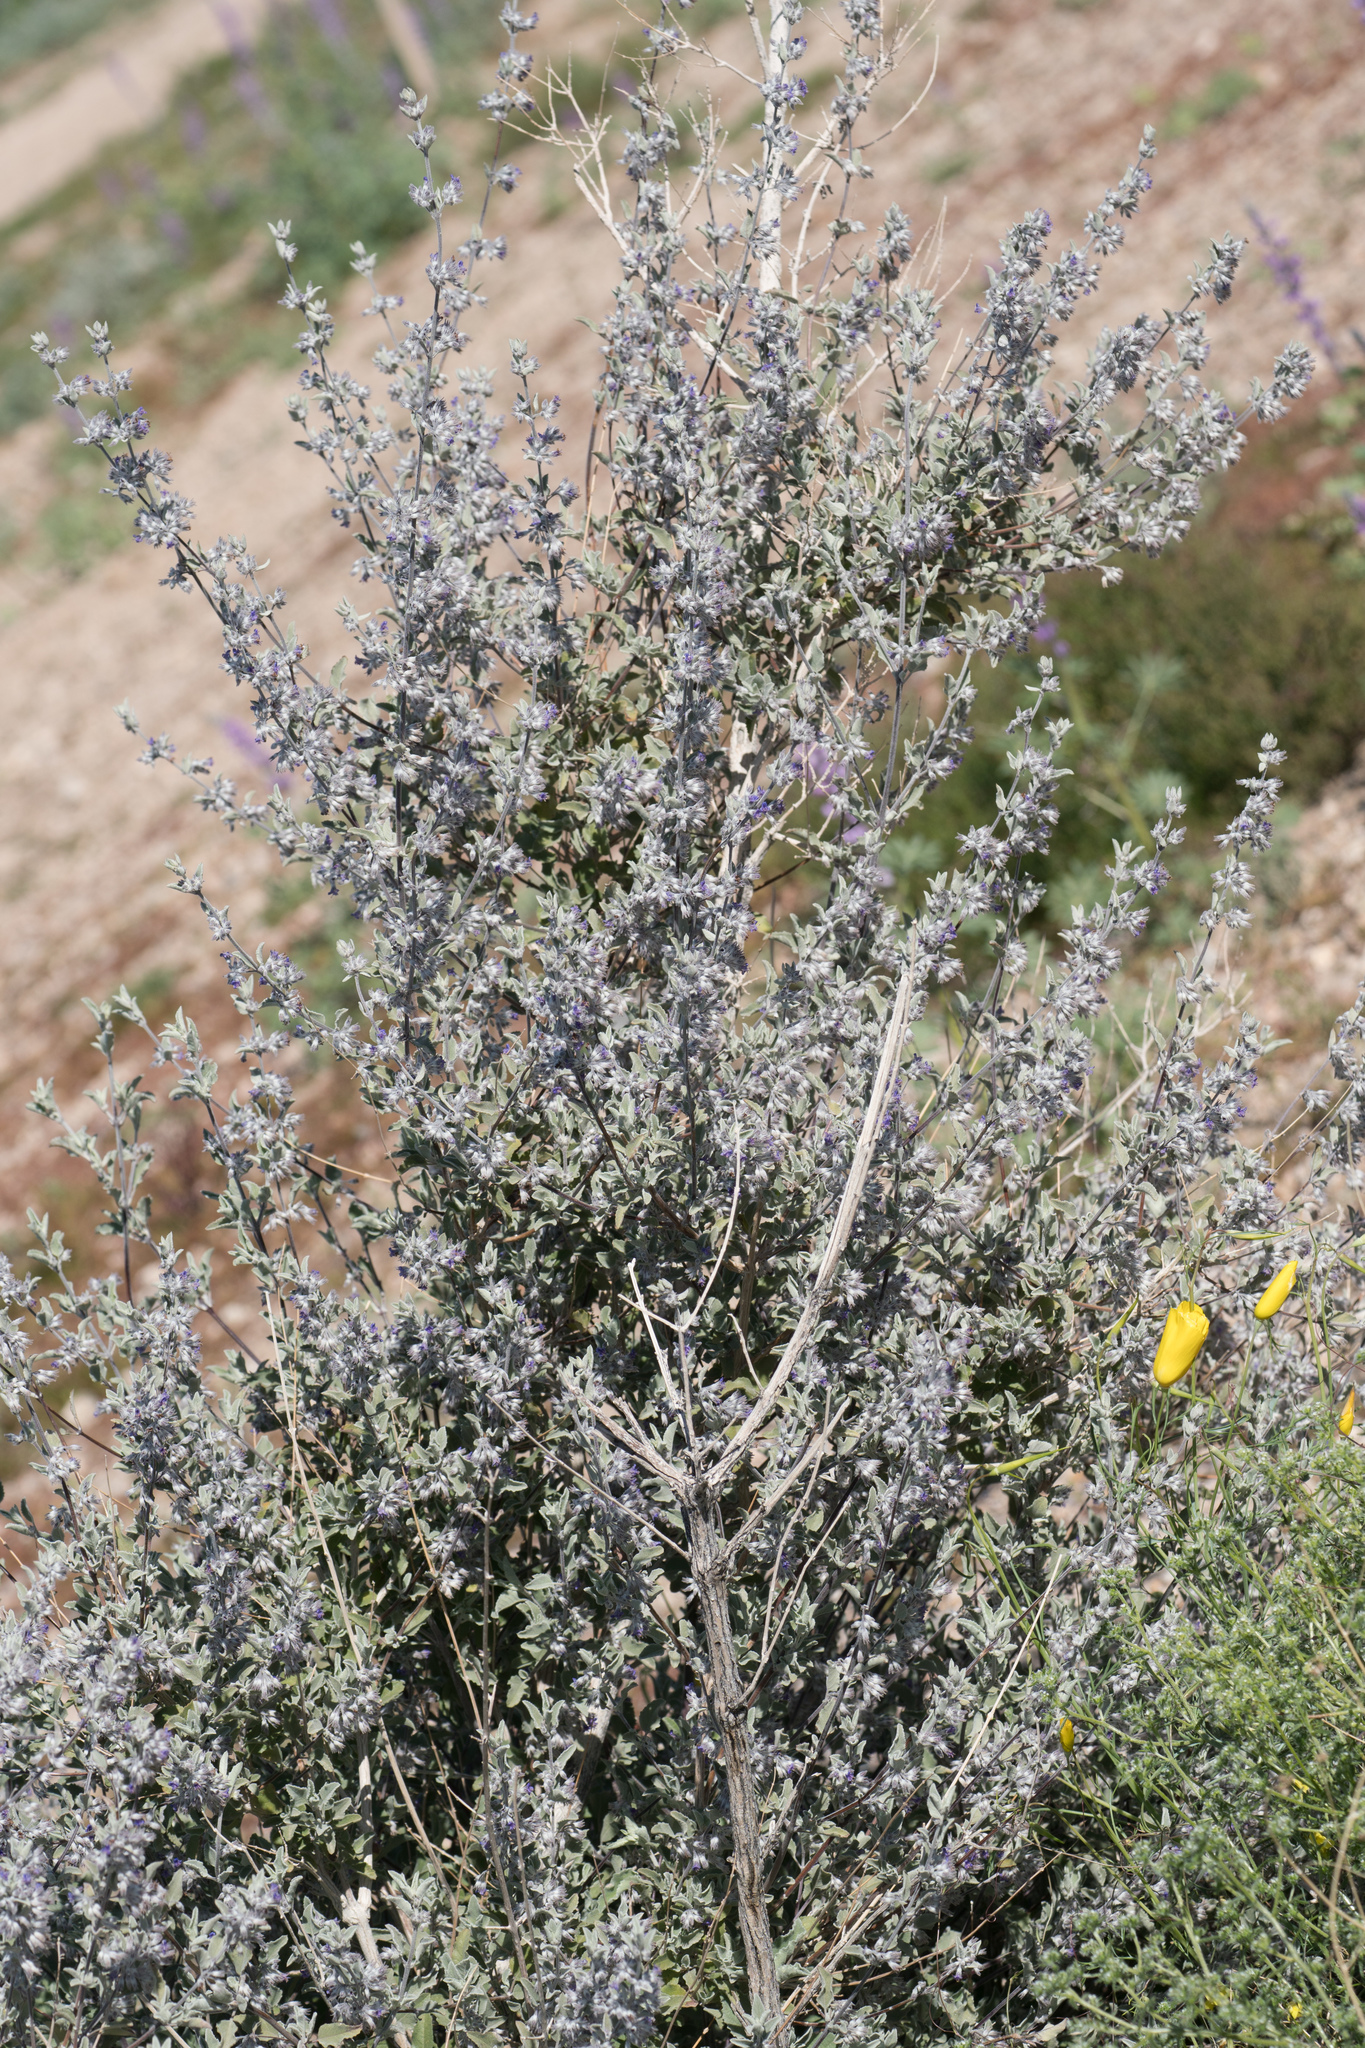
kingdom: Plantae
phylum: Tracheophyta
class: Magnoliopsida
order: Lamiales
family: Lamiaceae
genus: Condea
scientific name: Condea emoryi
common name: Chia
